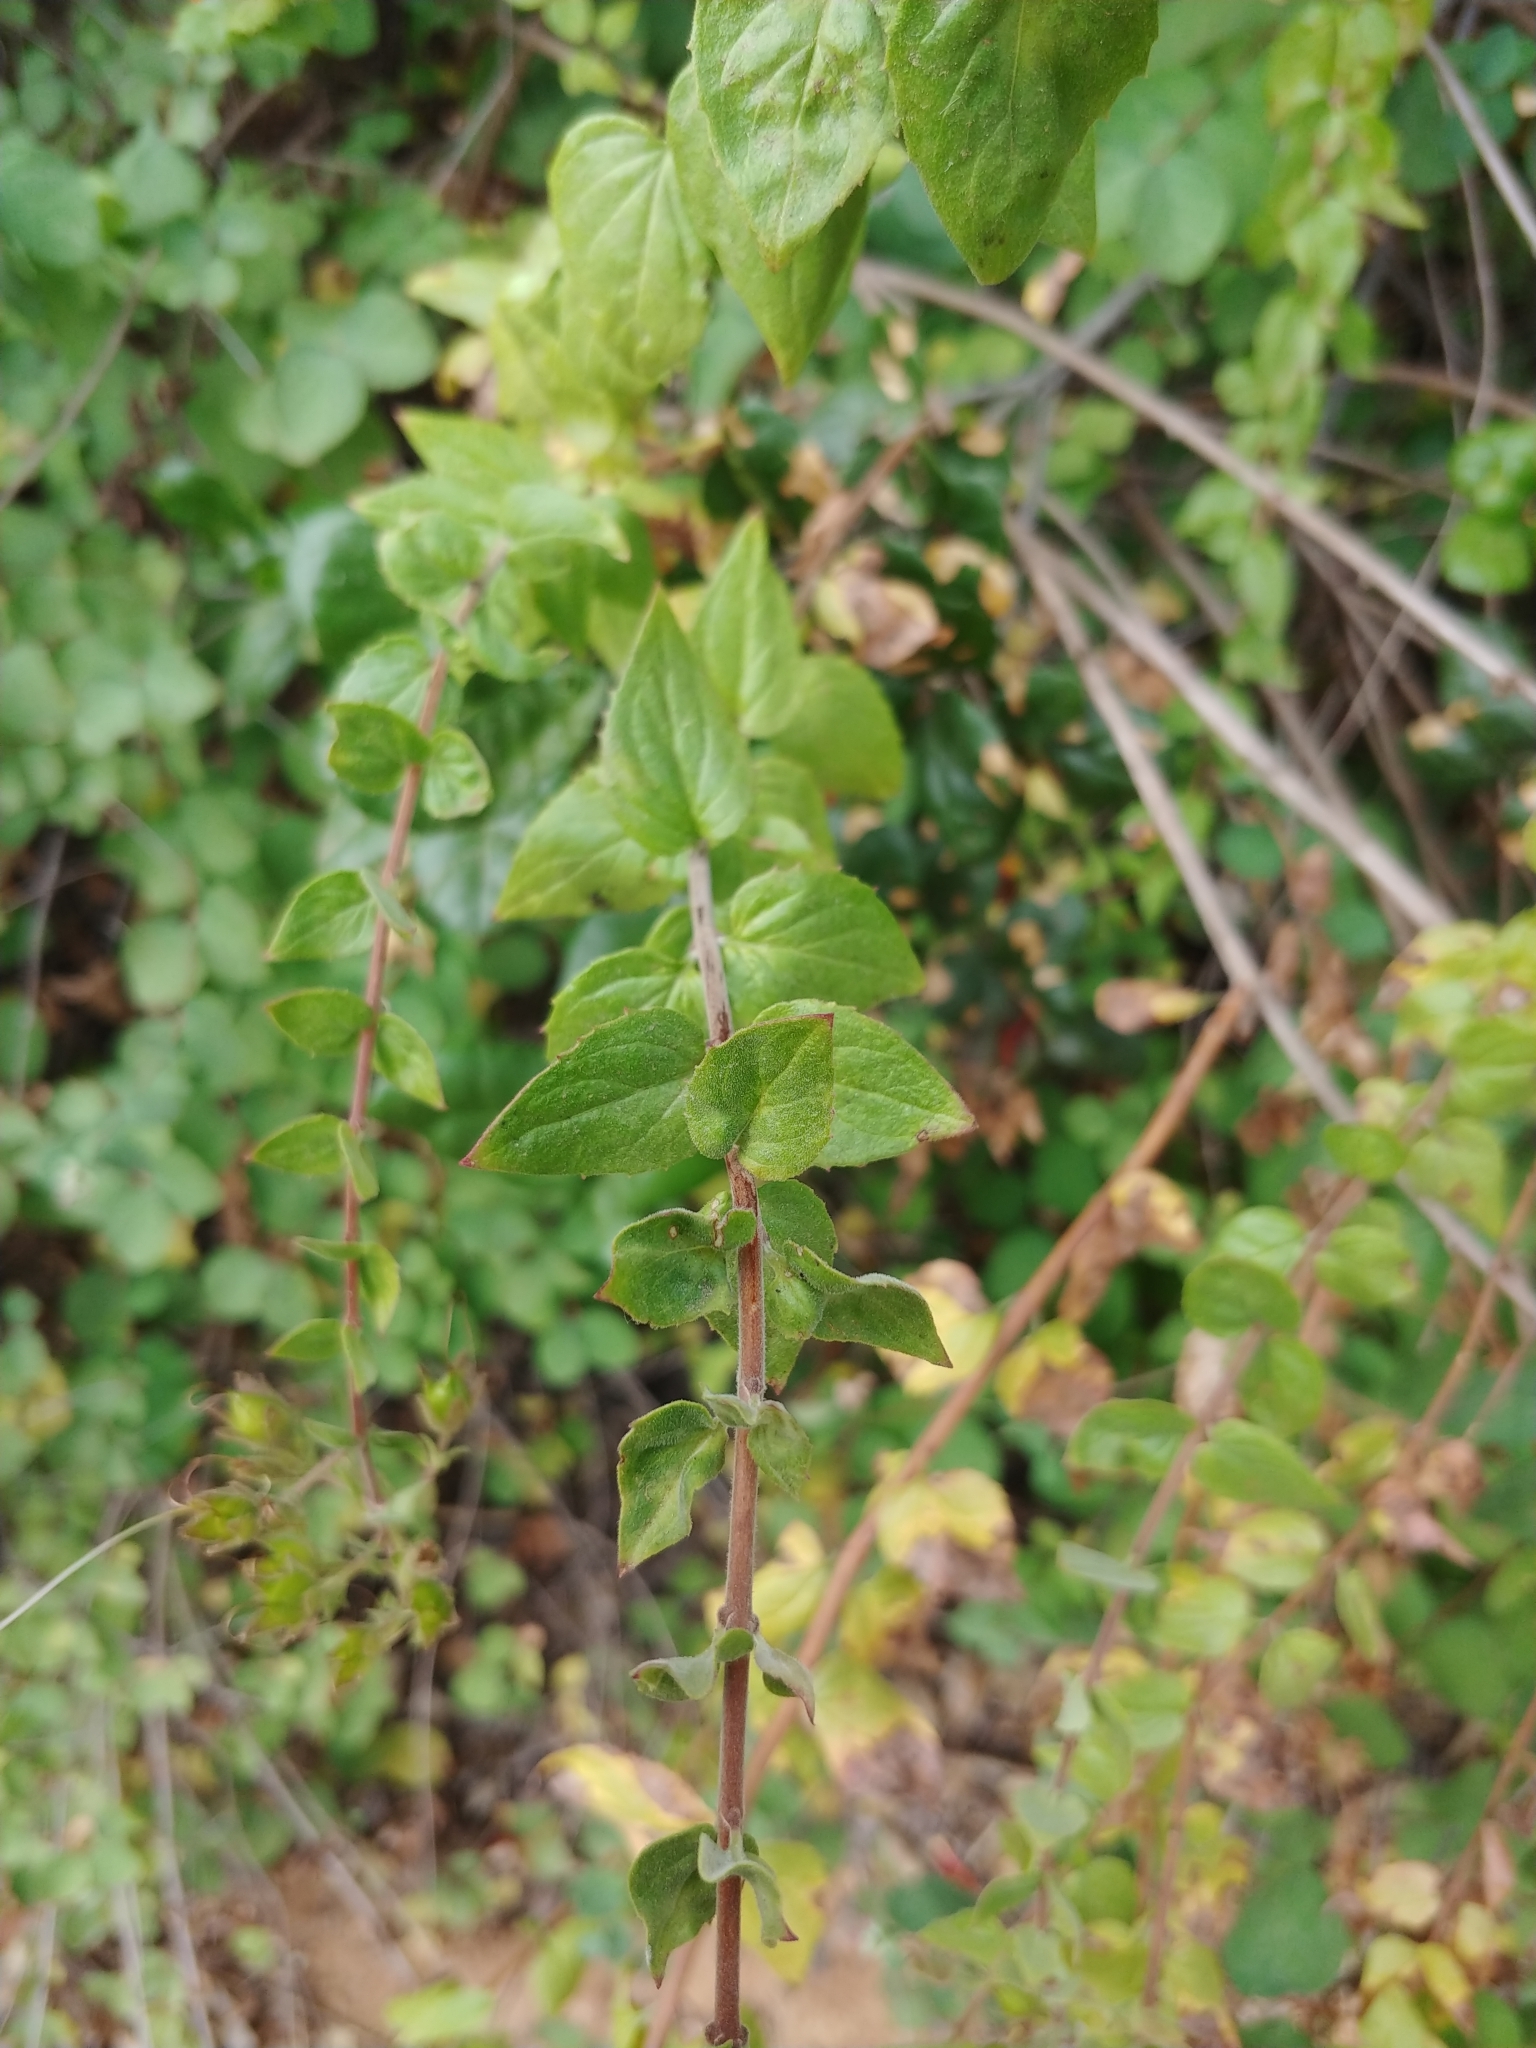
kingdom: Plantae
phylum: Tracheophyta
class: Magnoliopsida
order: Lamiales
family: Plantaginaceae
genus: Keckiella
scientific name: Keckiella cordifolia
